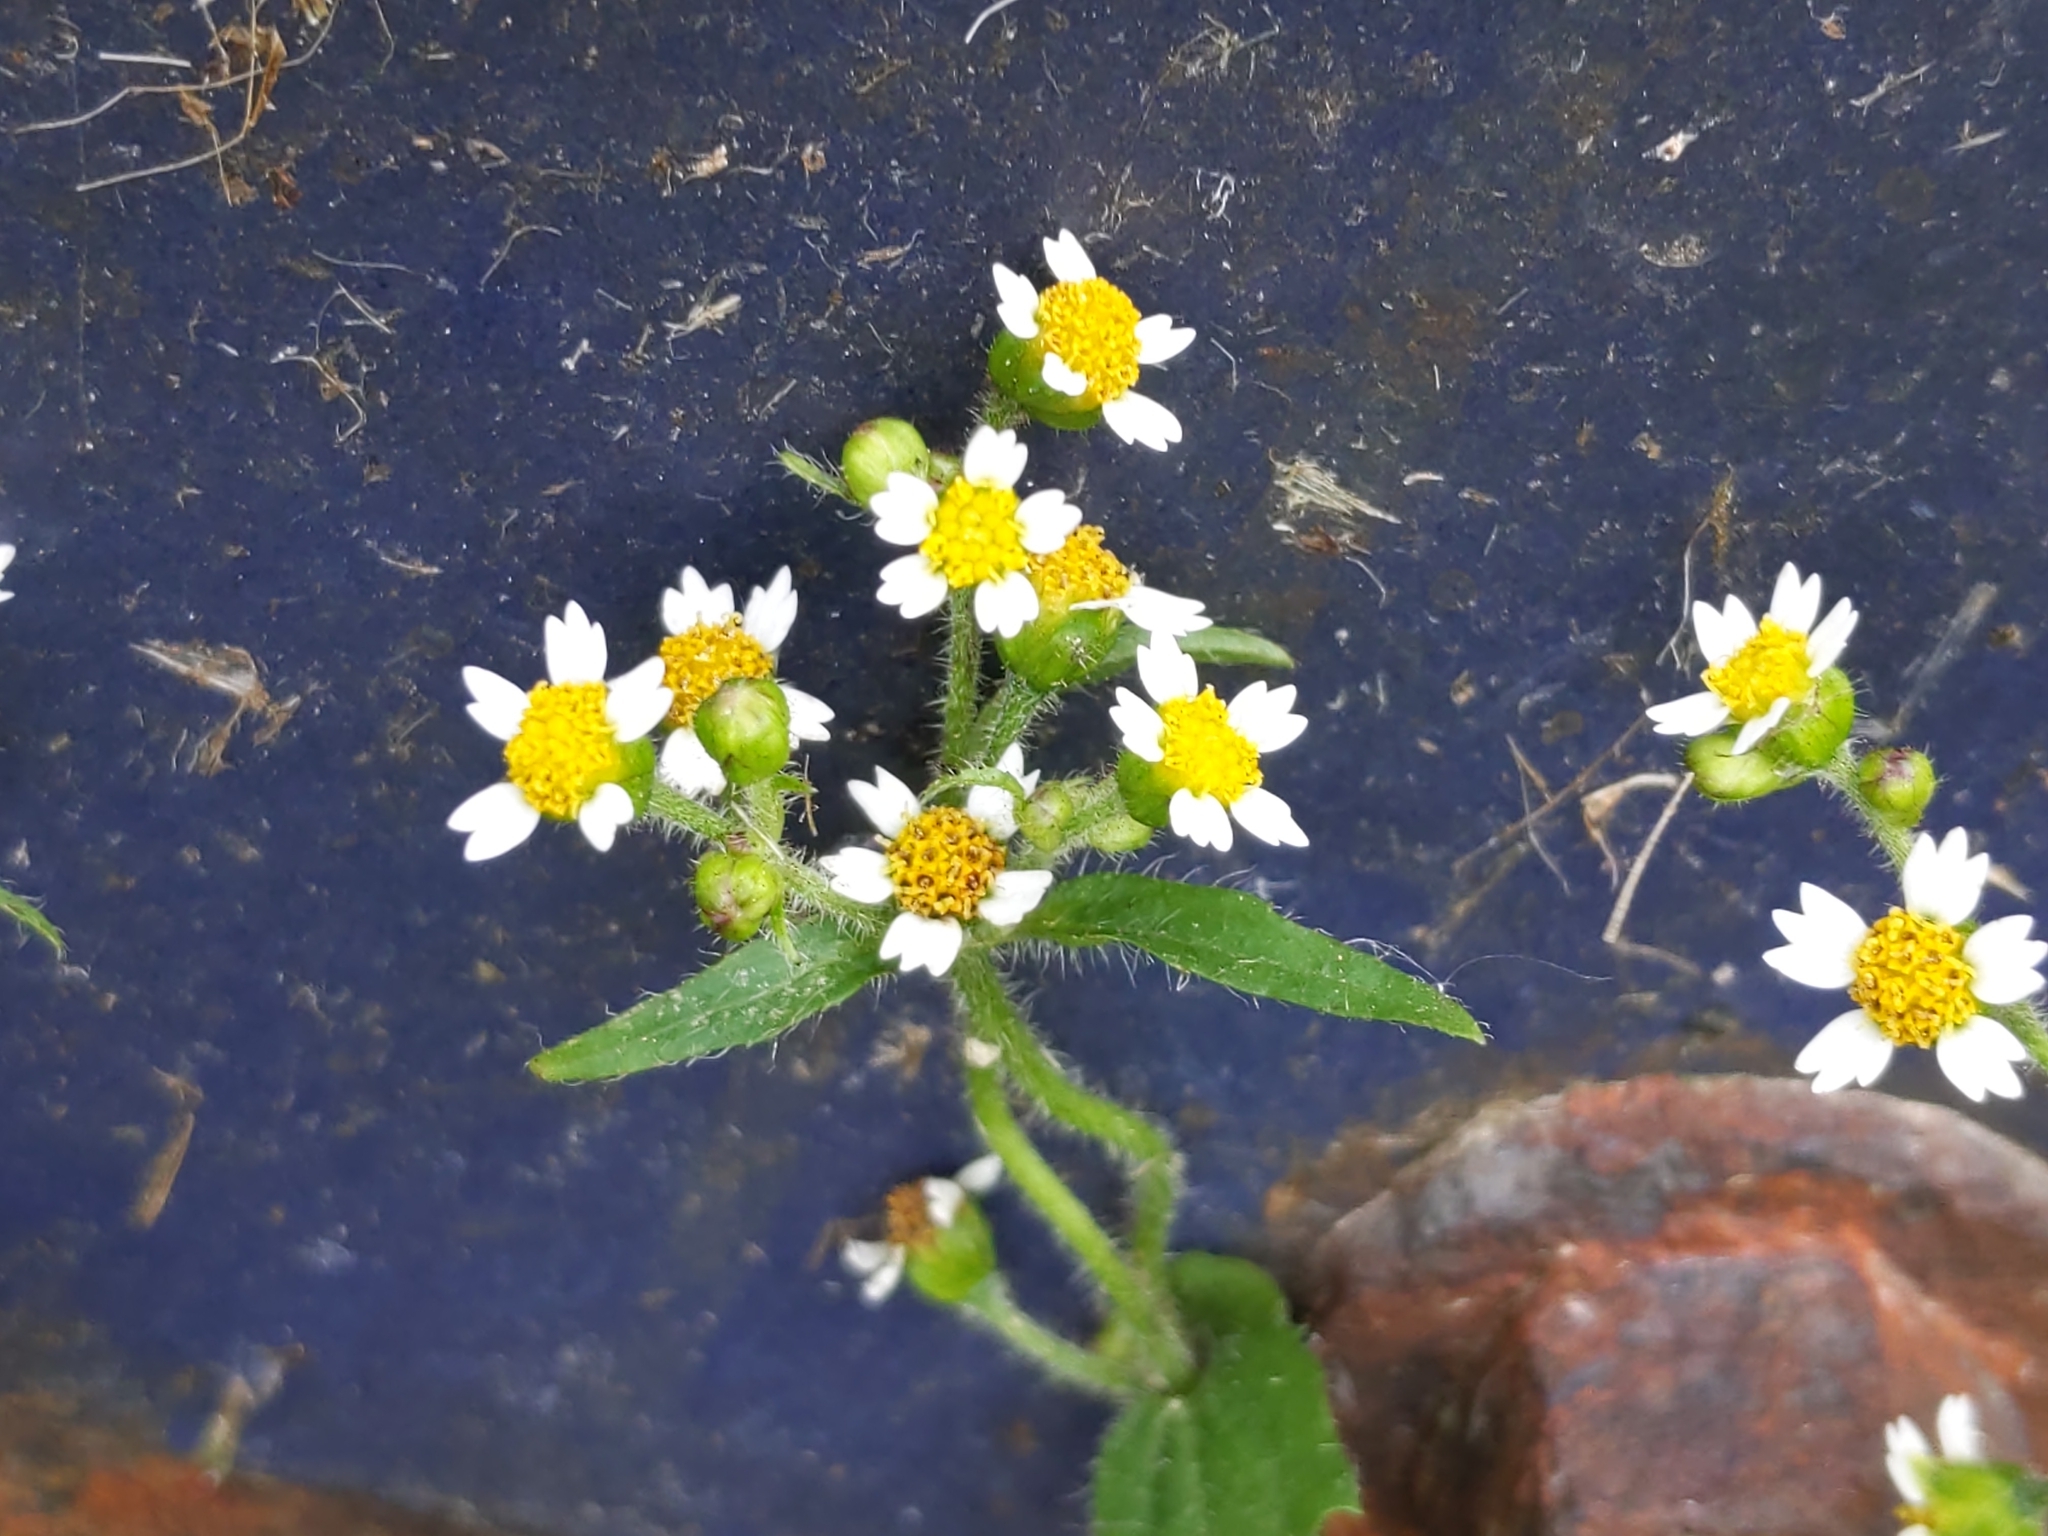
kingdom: Plantae
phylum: Tracheophyta
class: Magnoliopsida
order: Asterales
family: Asteraceae
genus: Galinsoga
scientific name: Galinsoga quadriradiata
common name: Shaggy soldier
